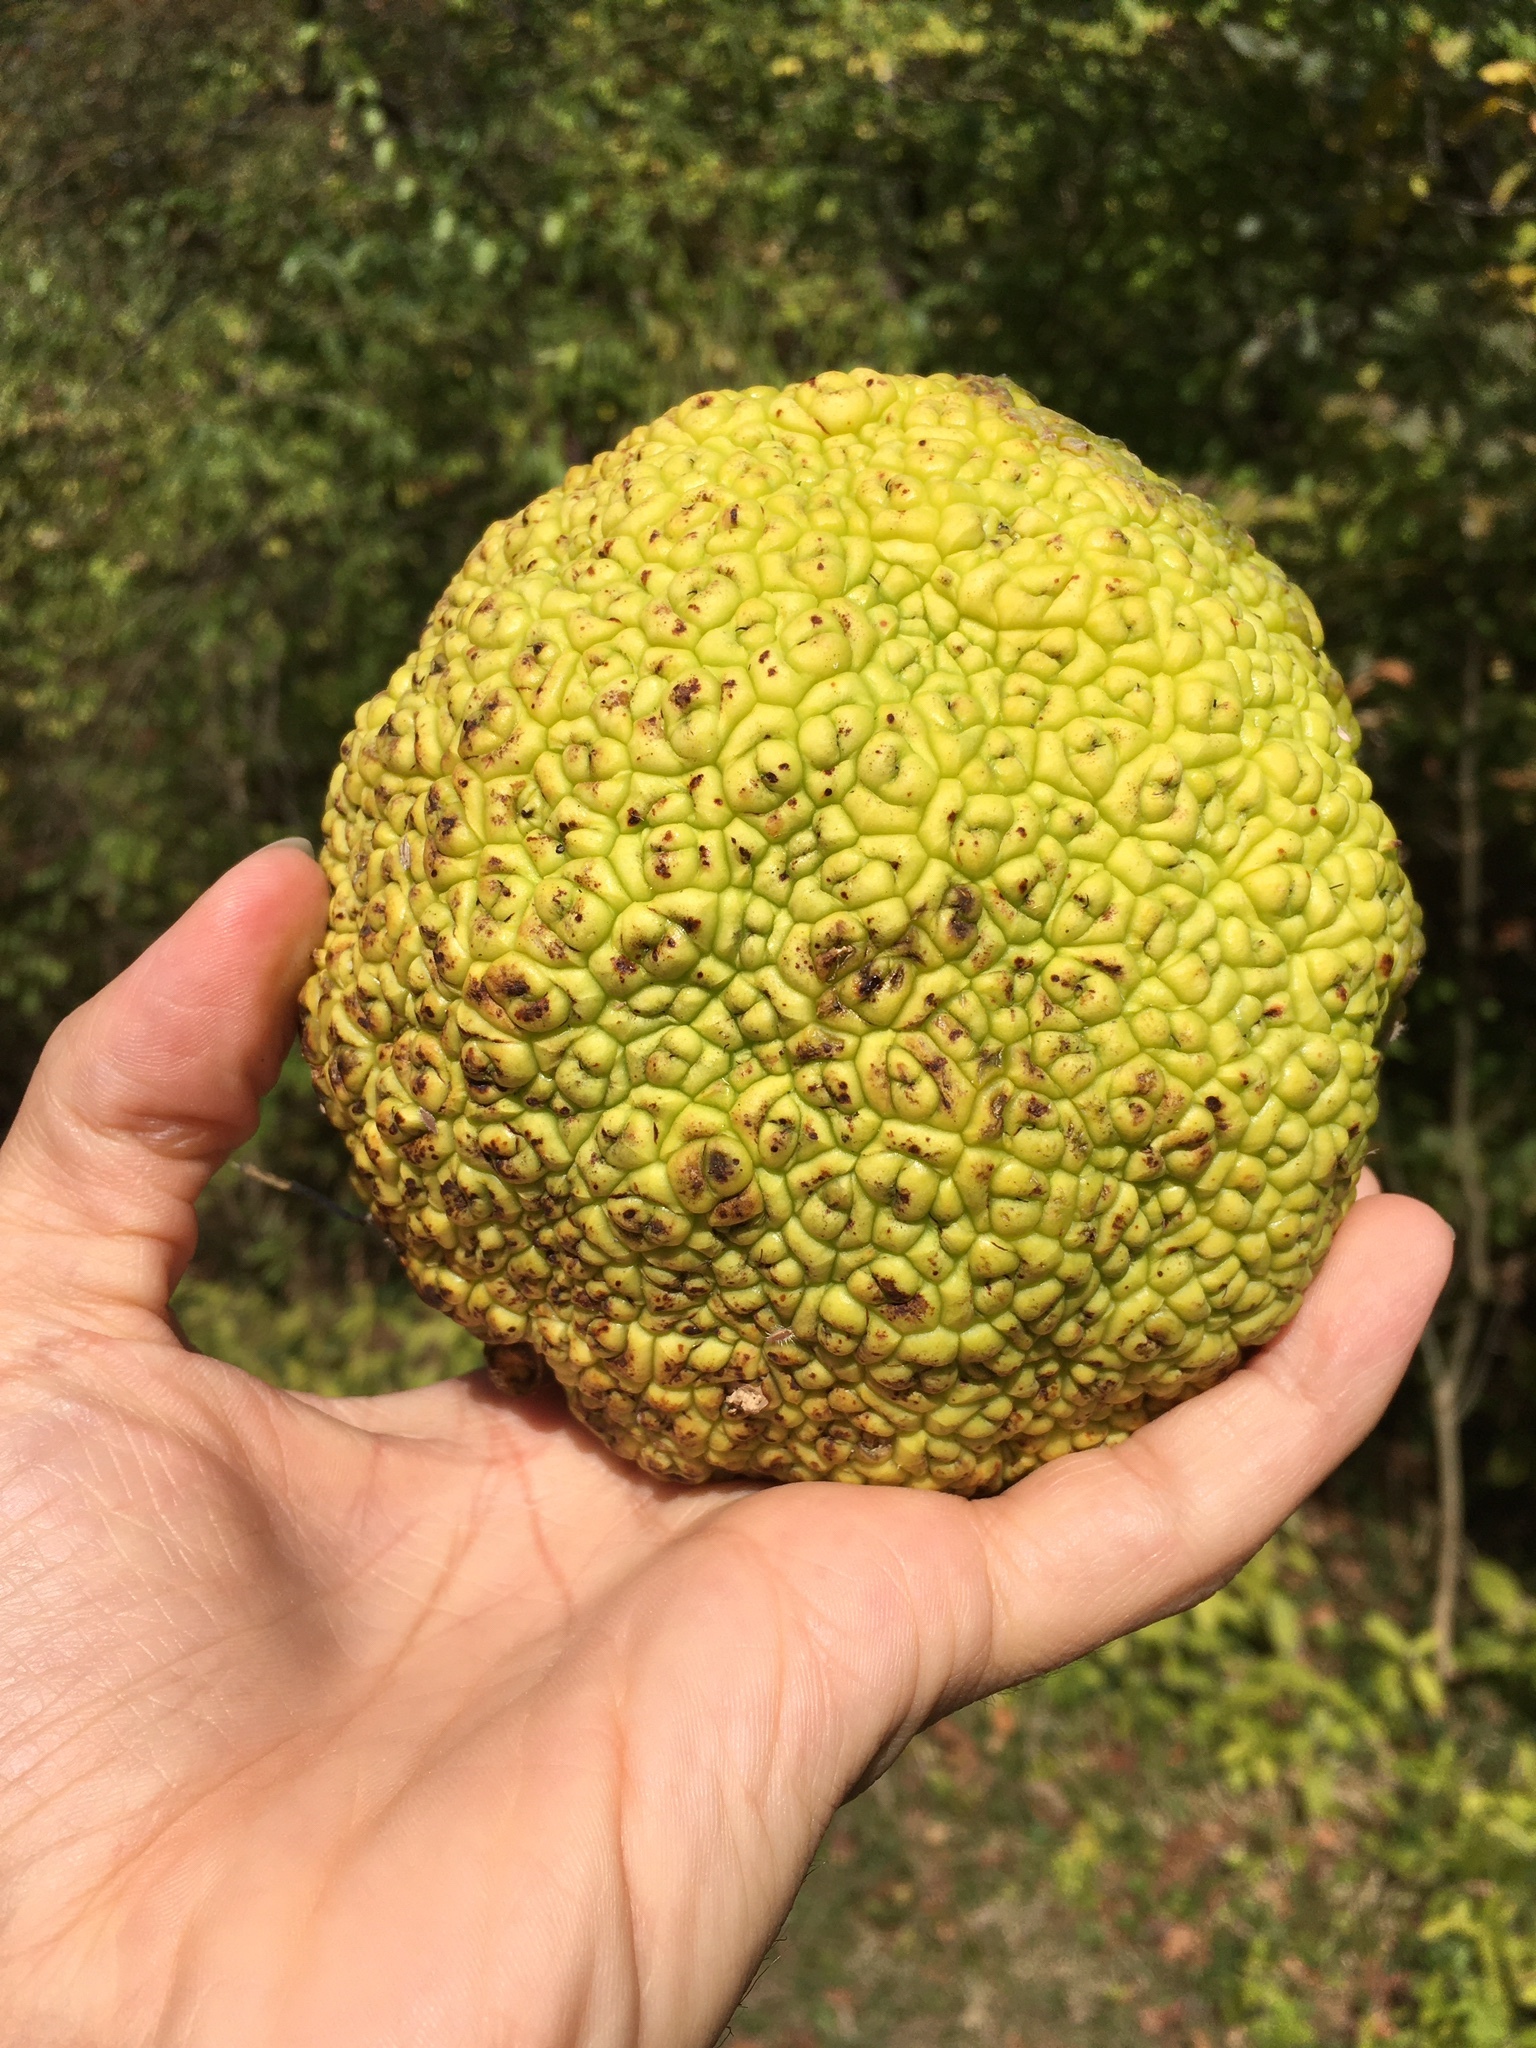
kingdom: Plantae
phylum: Tracheophyta
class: Magnoliopsida
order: Rosales
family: Moraceae
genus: Maclura
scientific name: Maclura pomifera
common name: Osage-orange
